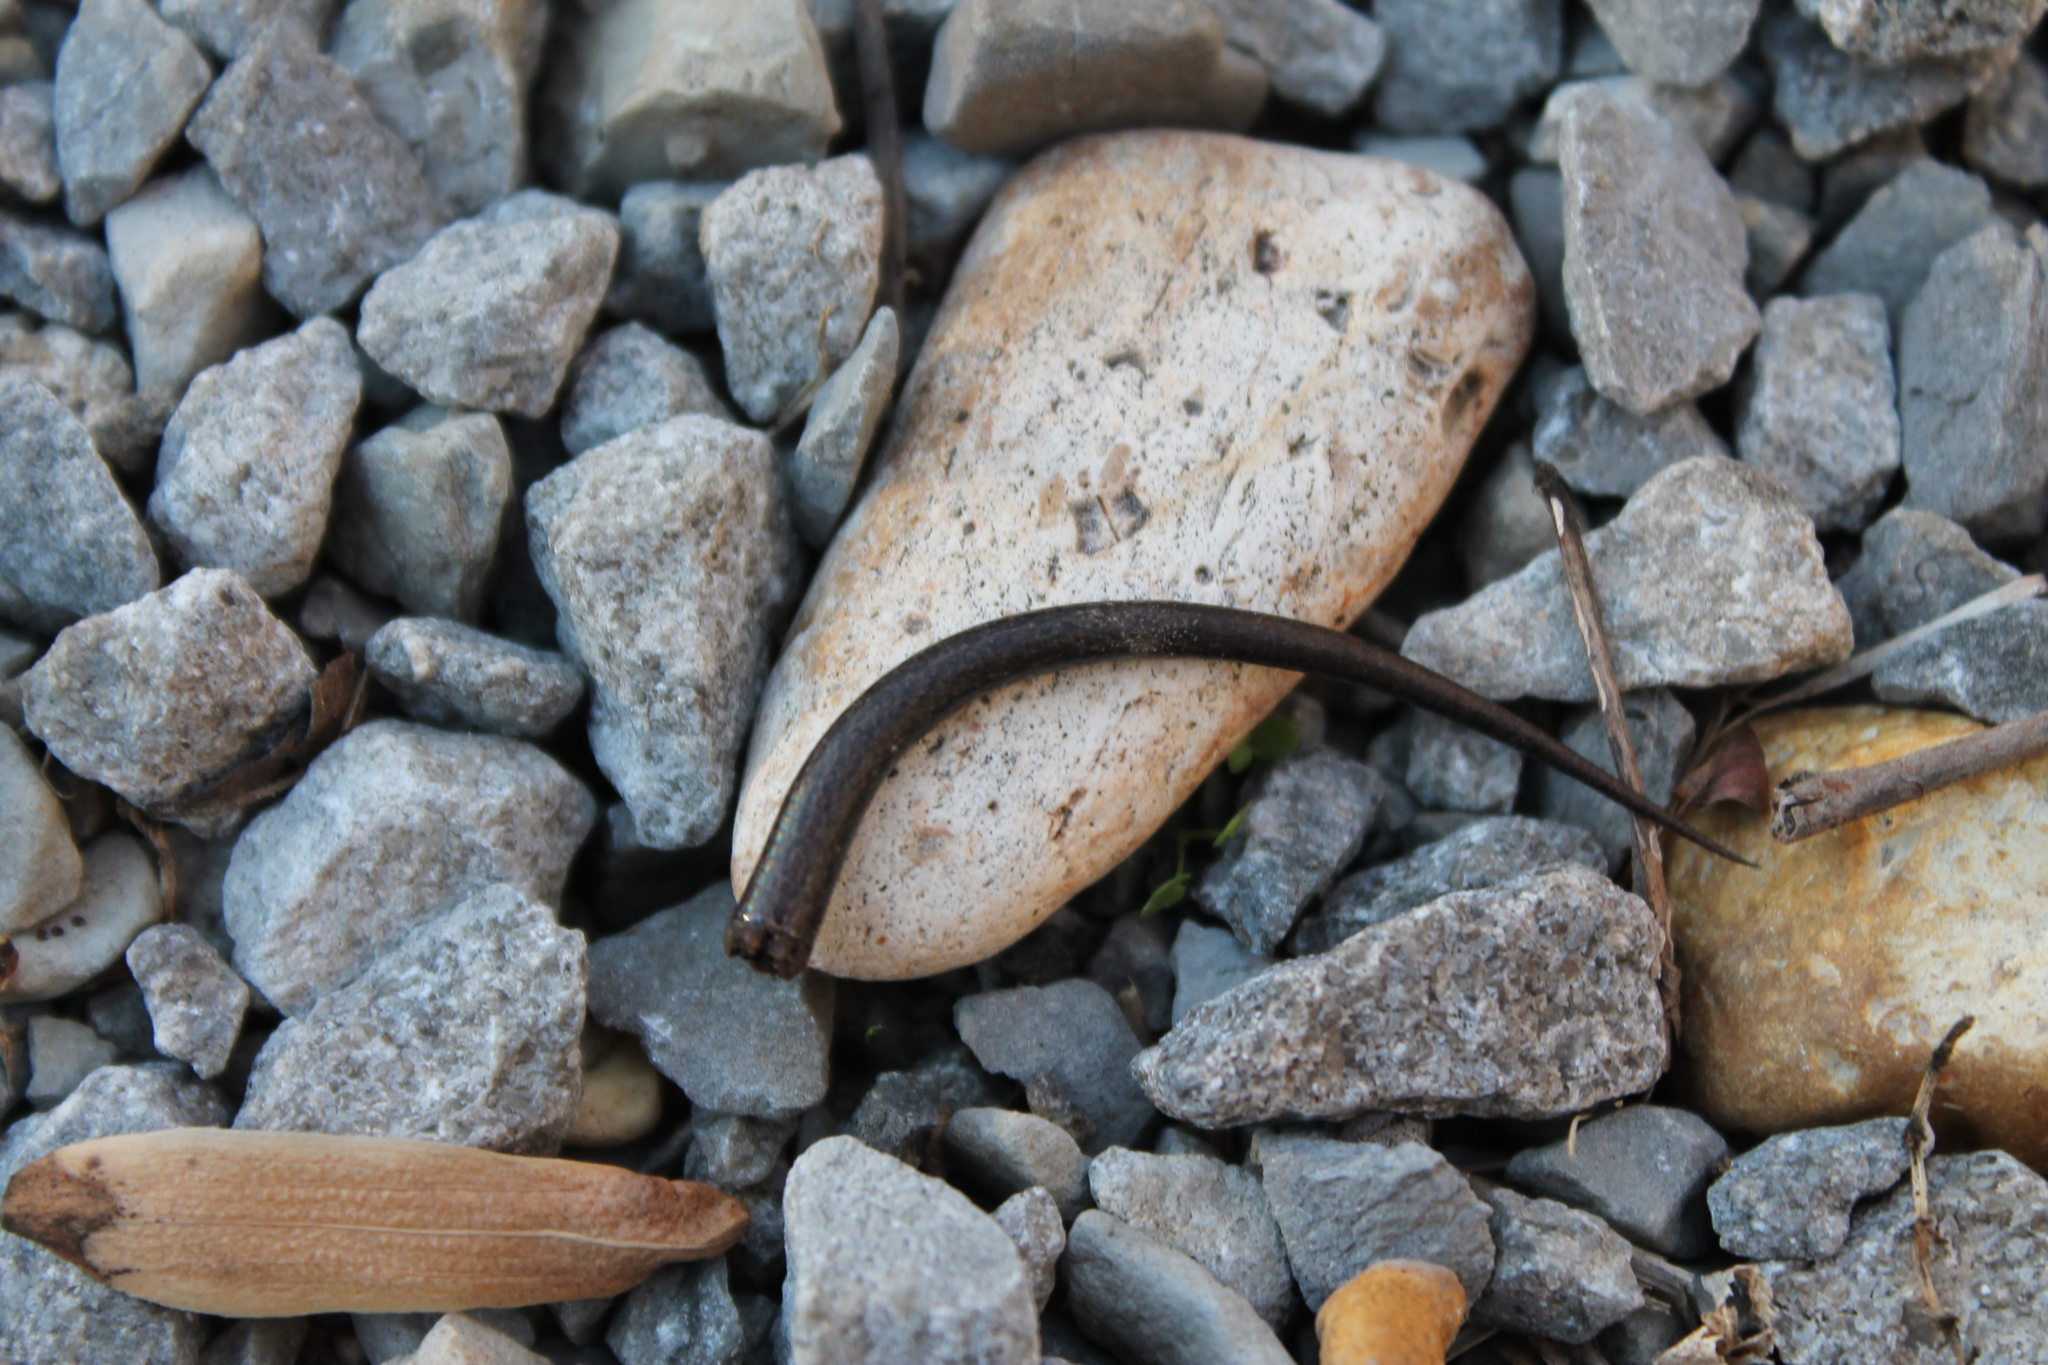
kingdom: Animalia
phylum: Chordata
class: Squamata
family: Scincidae
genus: Scincella
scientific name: Scincella lateralis
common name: Ground skink
